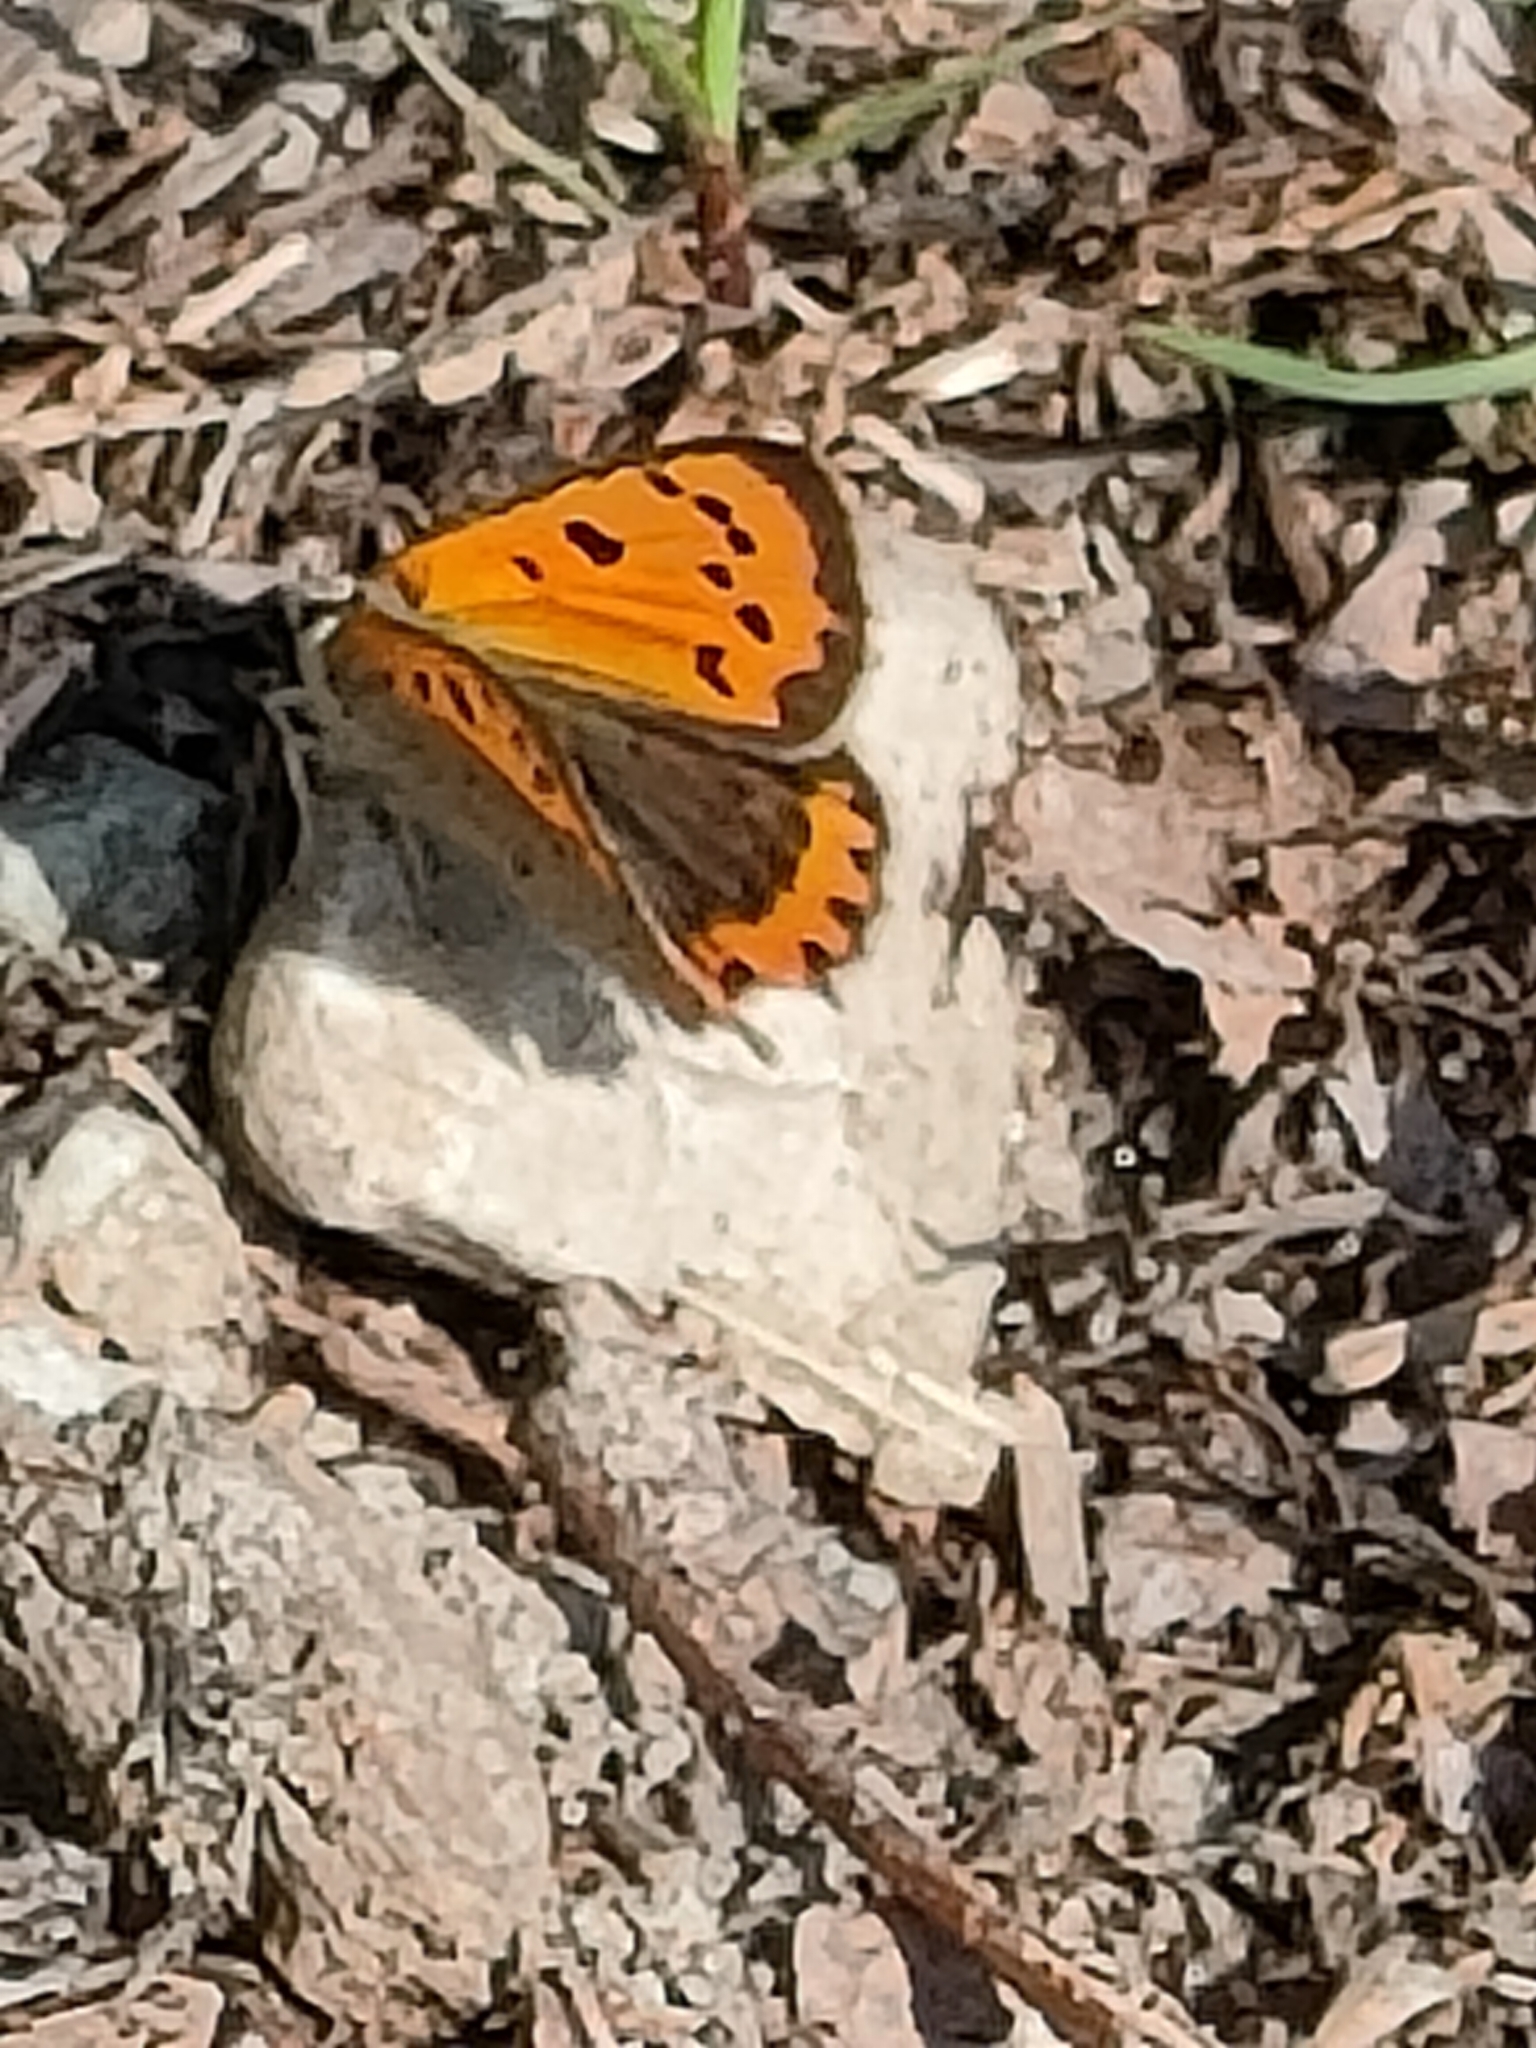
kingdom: Animalia
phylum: Arthropoda
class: Insecta
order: Lepidoptera
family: Lycaenidae
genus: Lycaena
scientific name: Lycaena phlaeas
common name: Small copper
